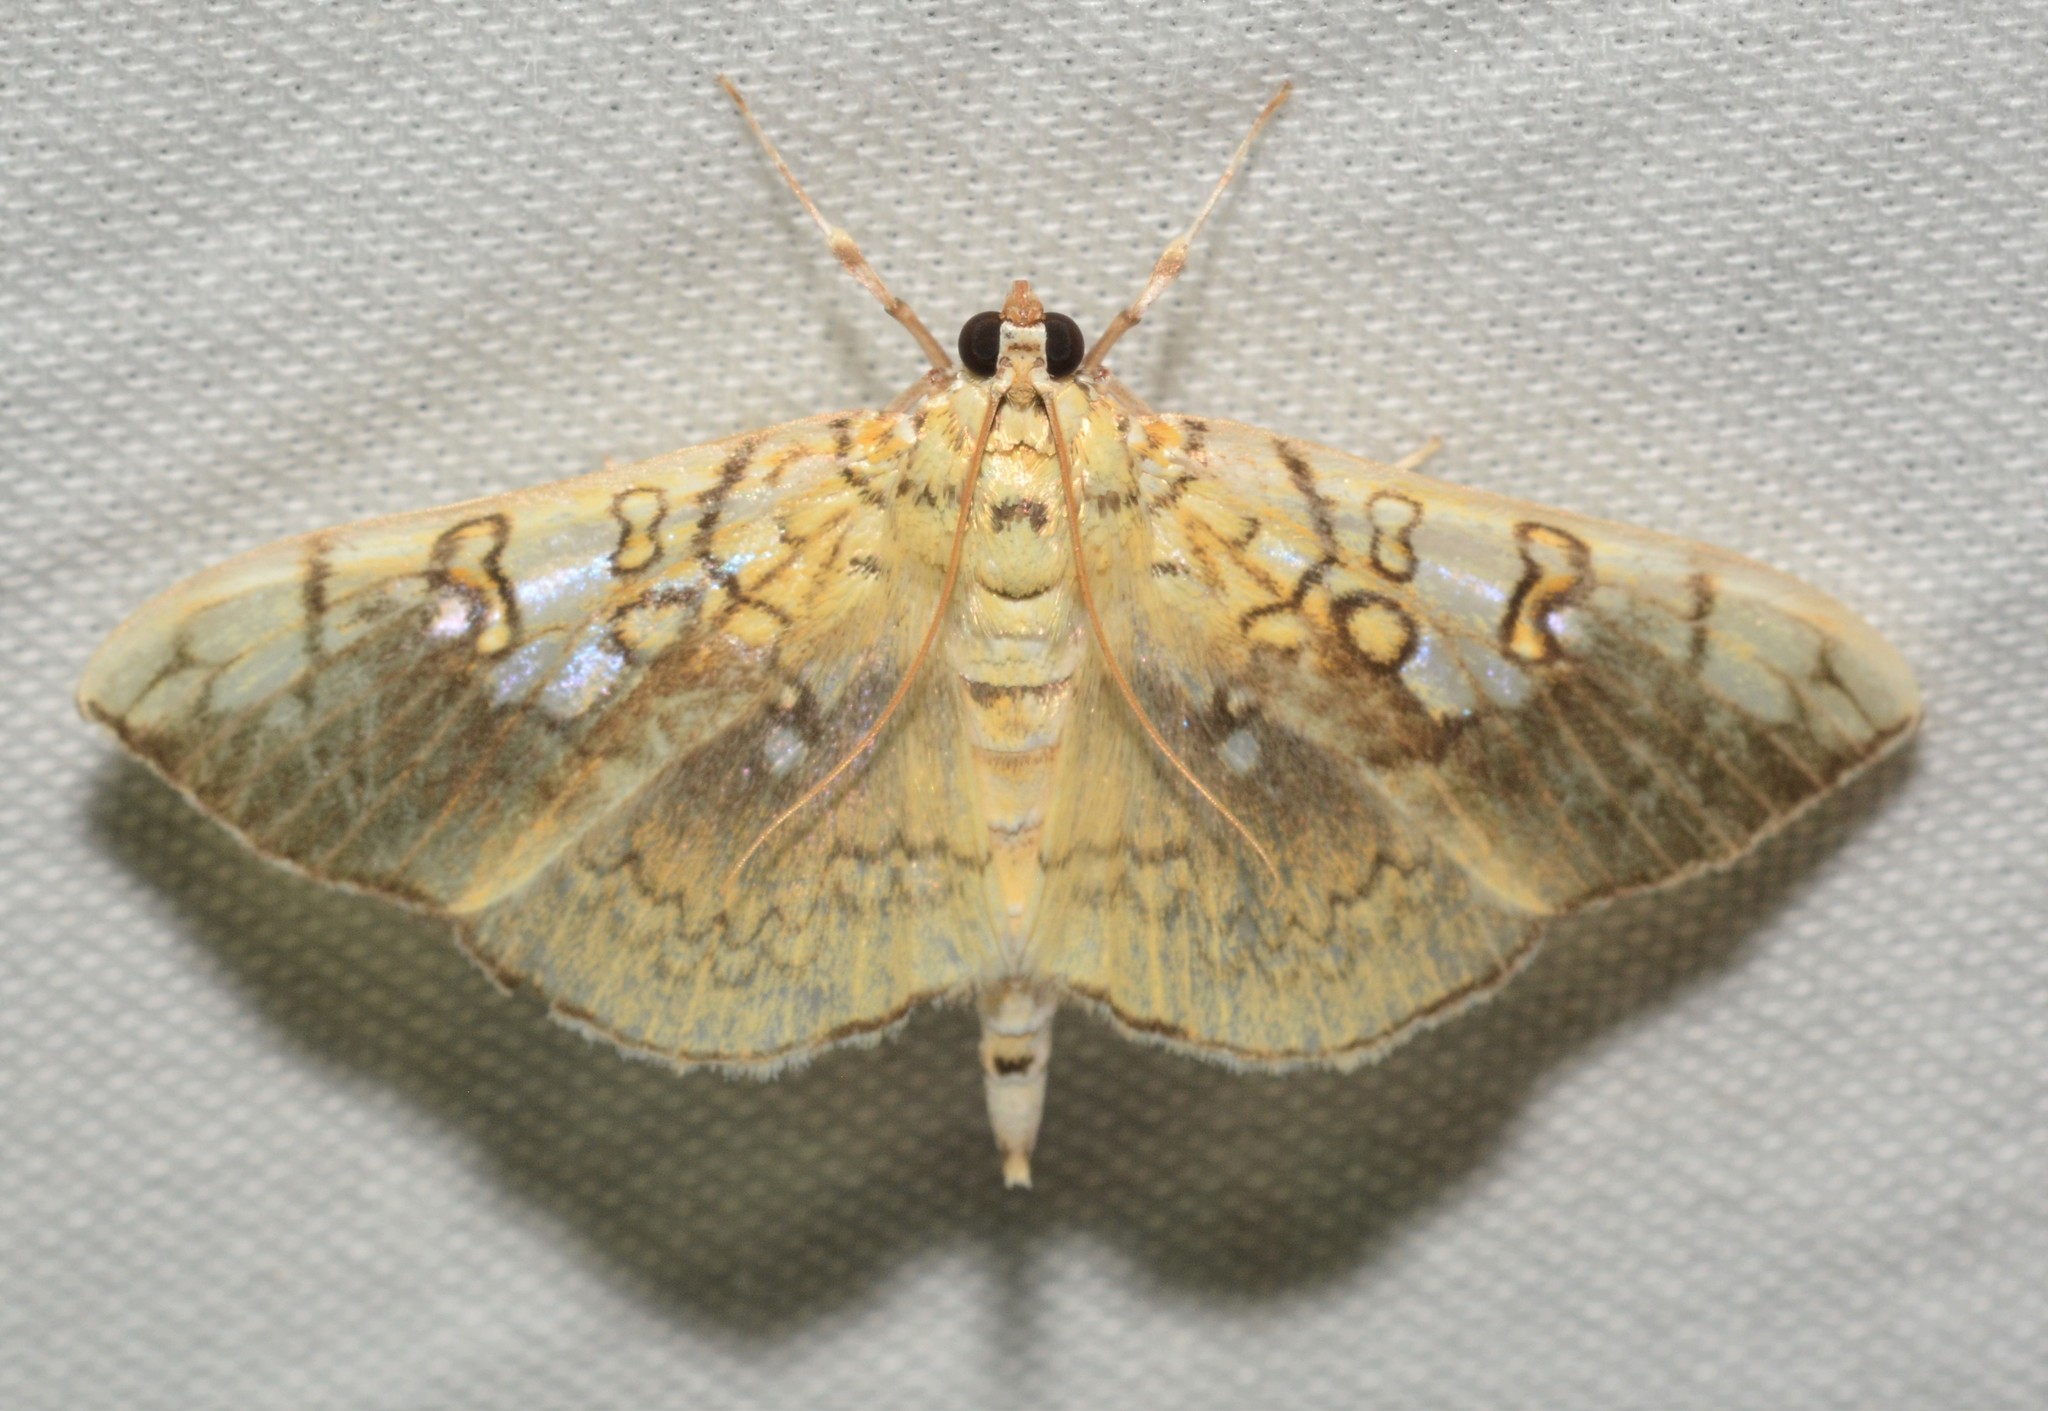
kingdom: Animalia
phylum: Arthropoda
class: Insecta
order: Lepidoptera
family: Crambidae
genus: Pantographa
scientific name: Pantographa limata
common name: Basswood leafroller moth
